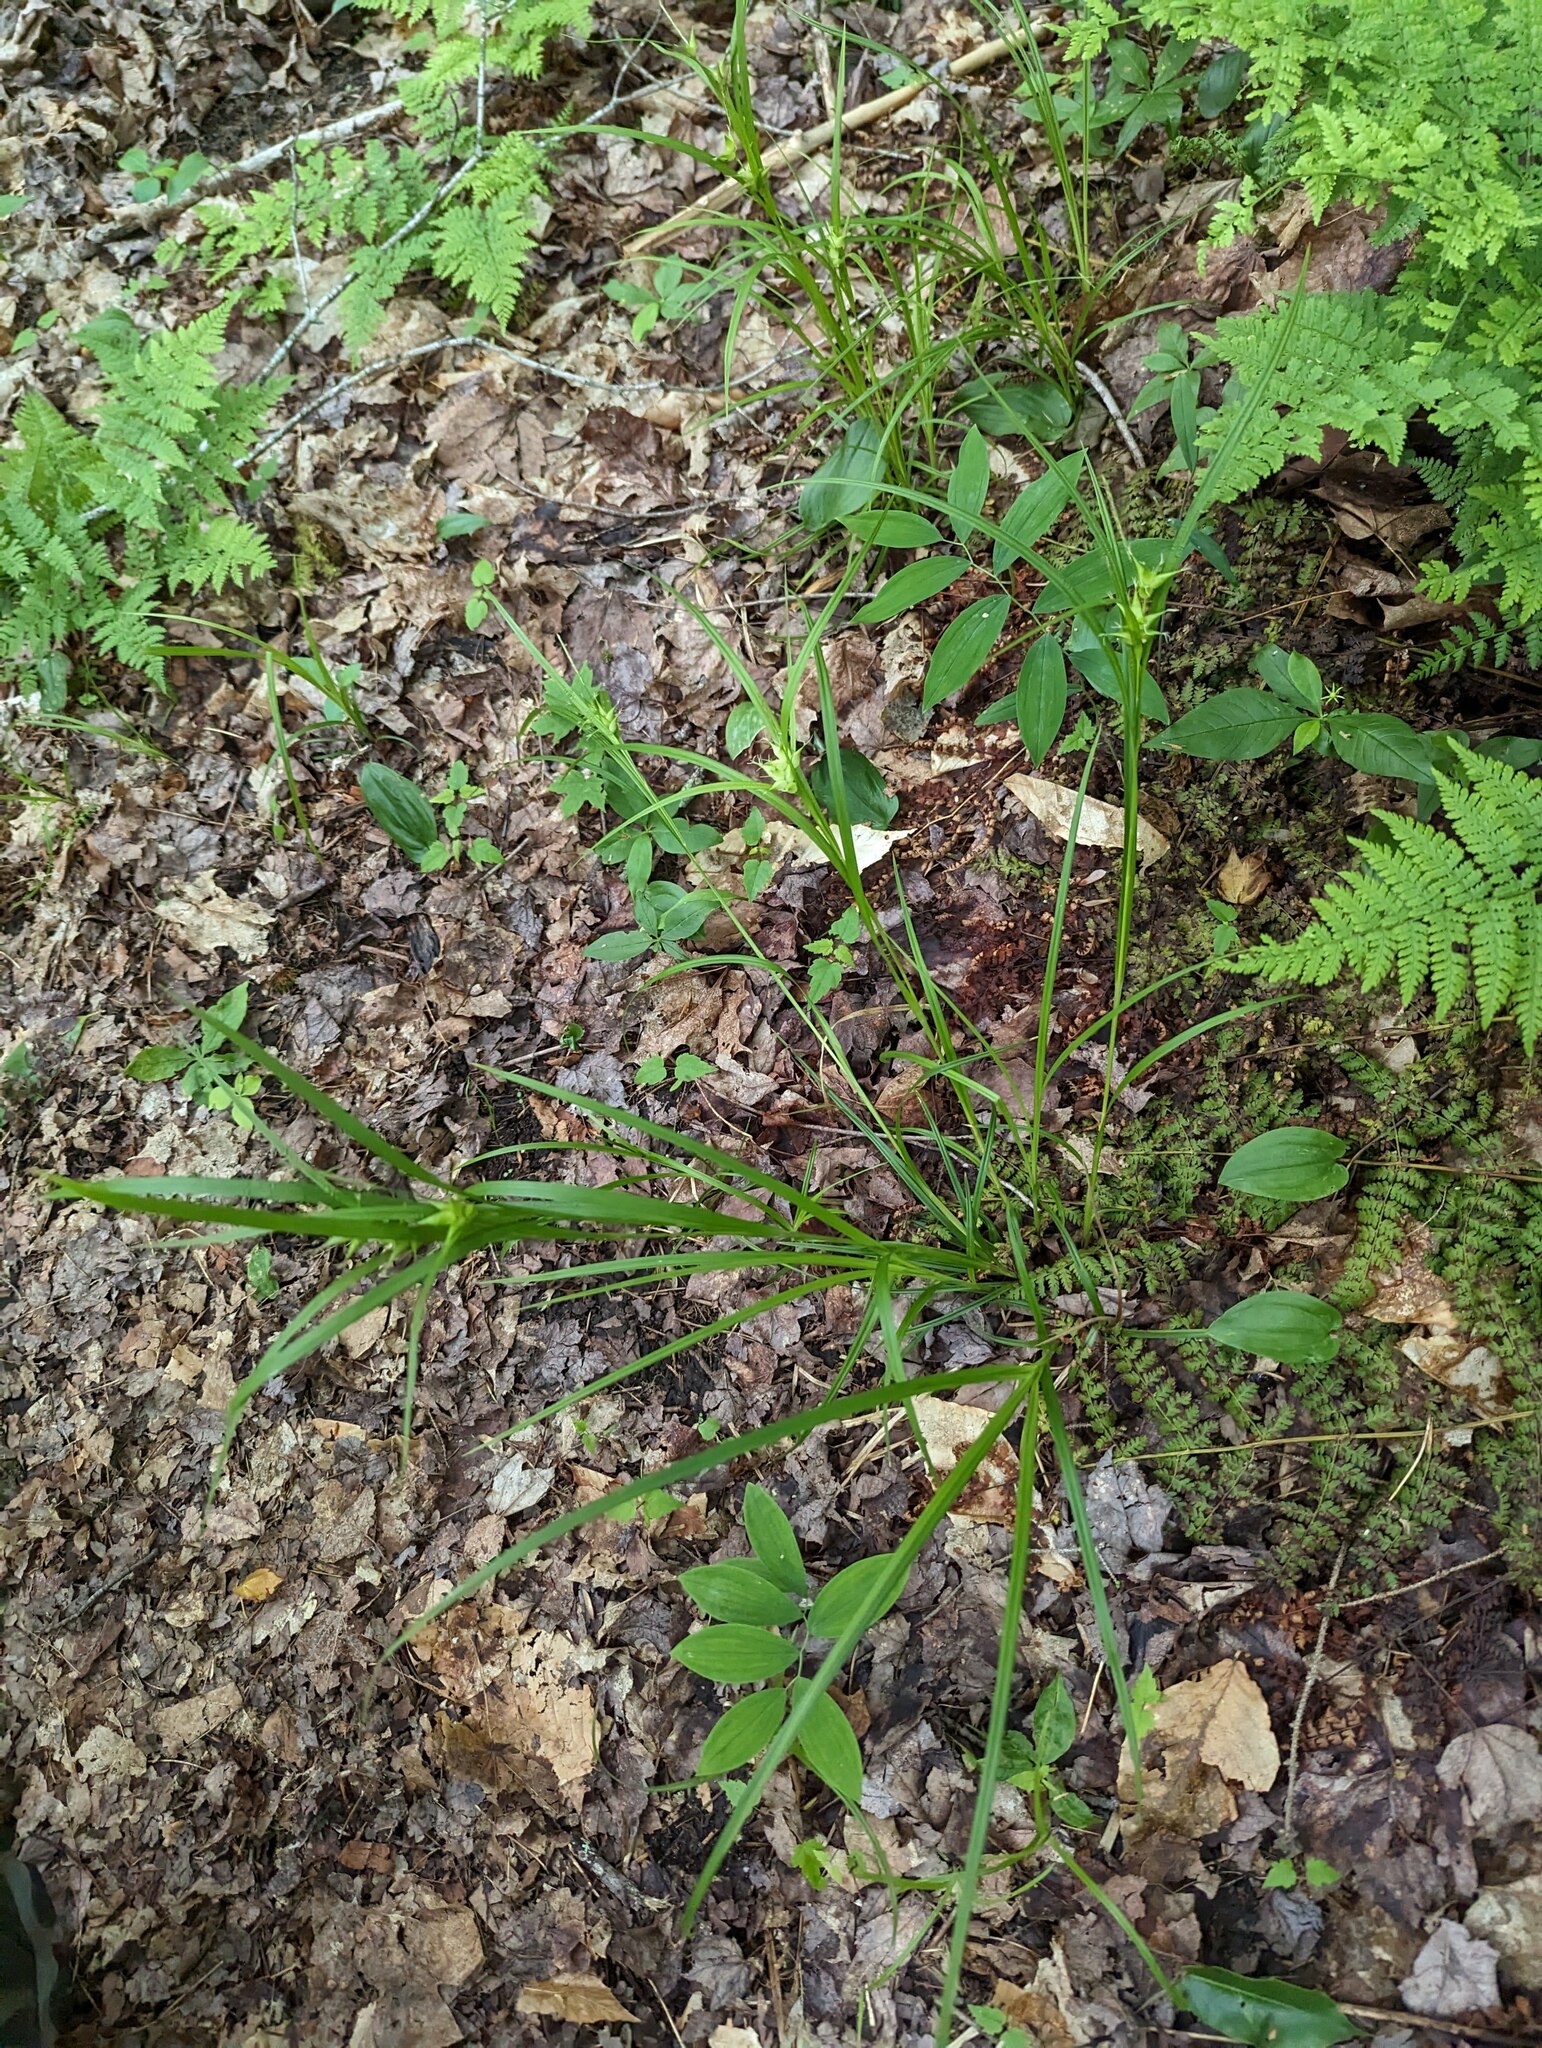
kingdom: Plantae
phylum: Tracheophyta
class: Liliopsida
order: Poales
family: Cyperaceae
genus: Carex
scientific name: Carex intumescens
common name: Greater bladder sedge
